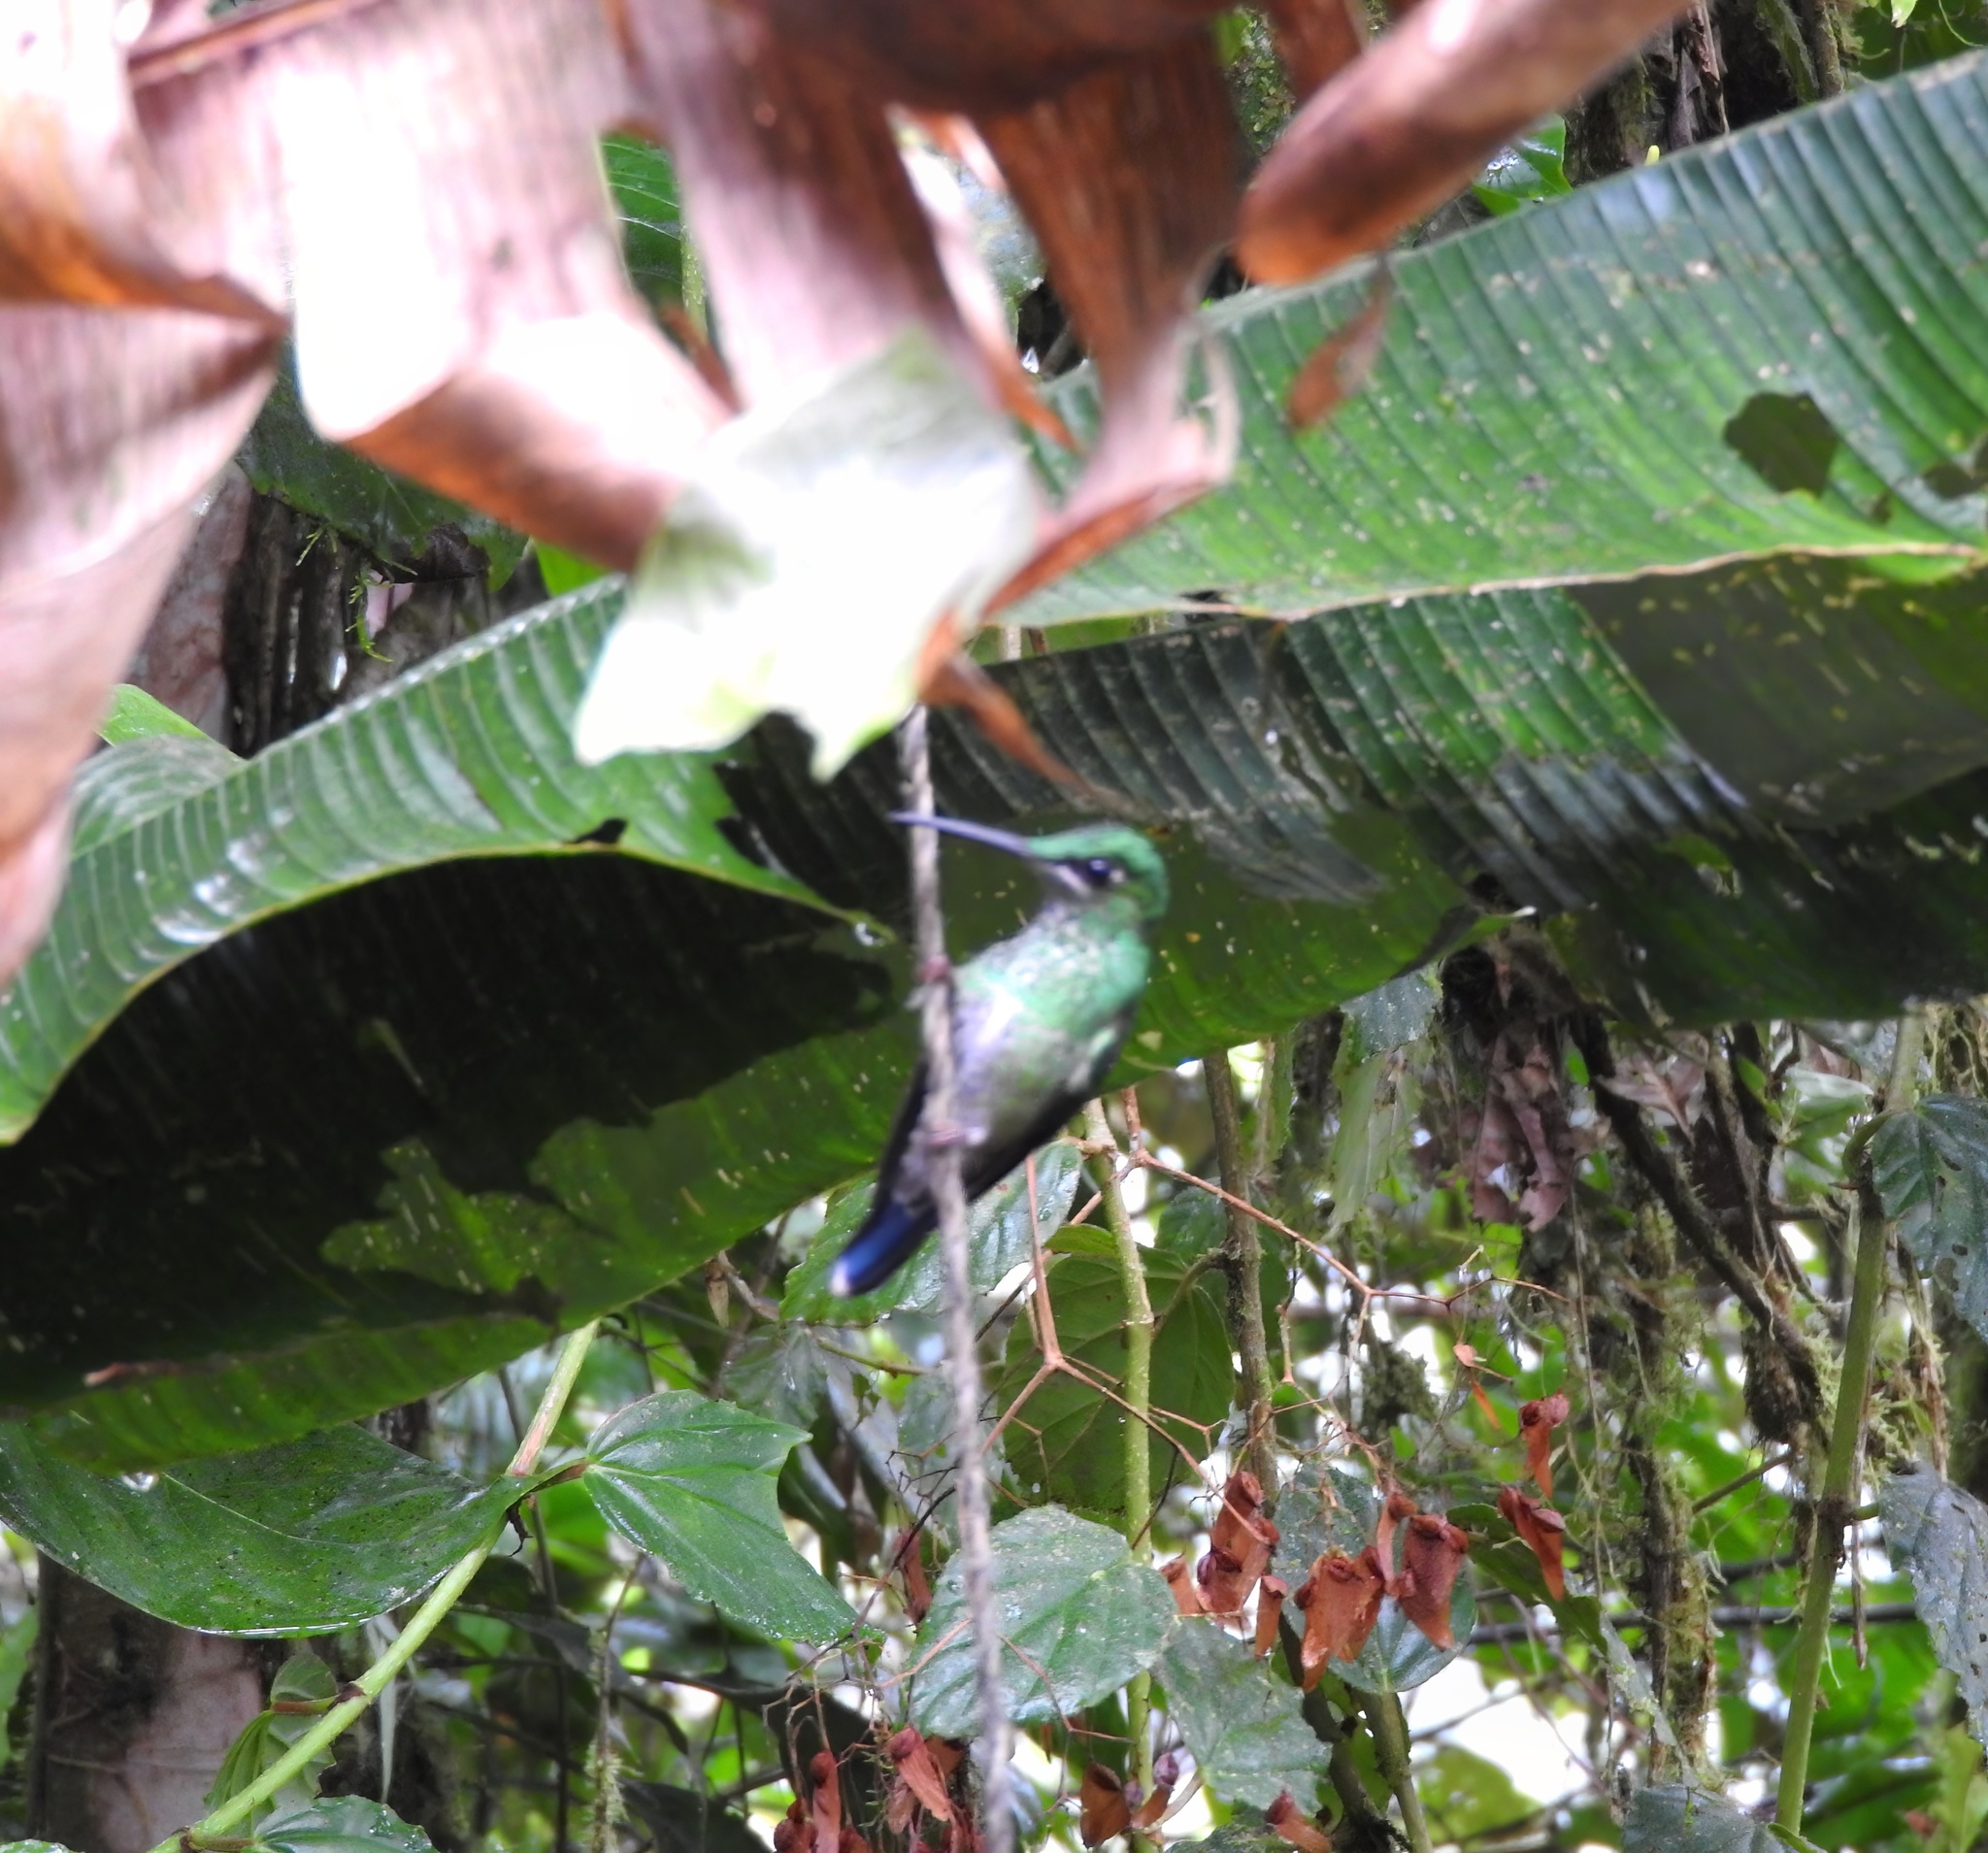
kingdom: Animalia
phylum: Chordata
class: Aves
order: Apodiformes
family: Trochilidae
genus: Heliodoxa
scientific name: Heliodoxa jacula
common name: Green-crowned brilliant
